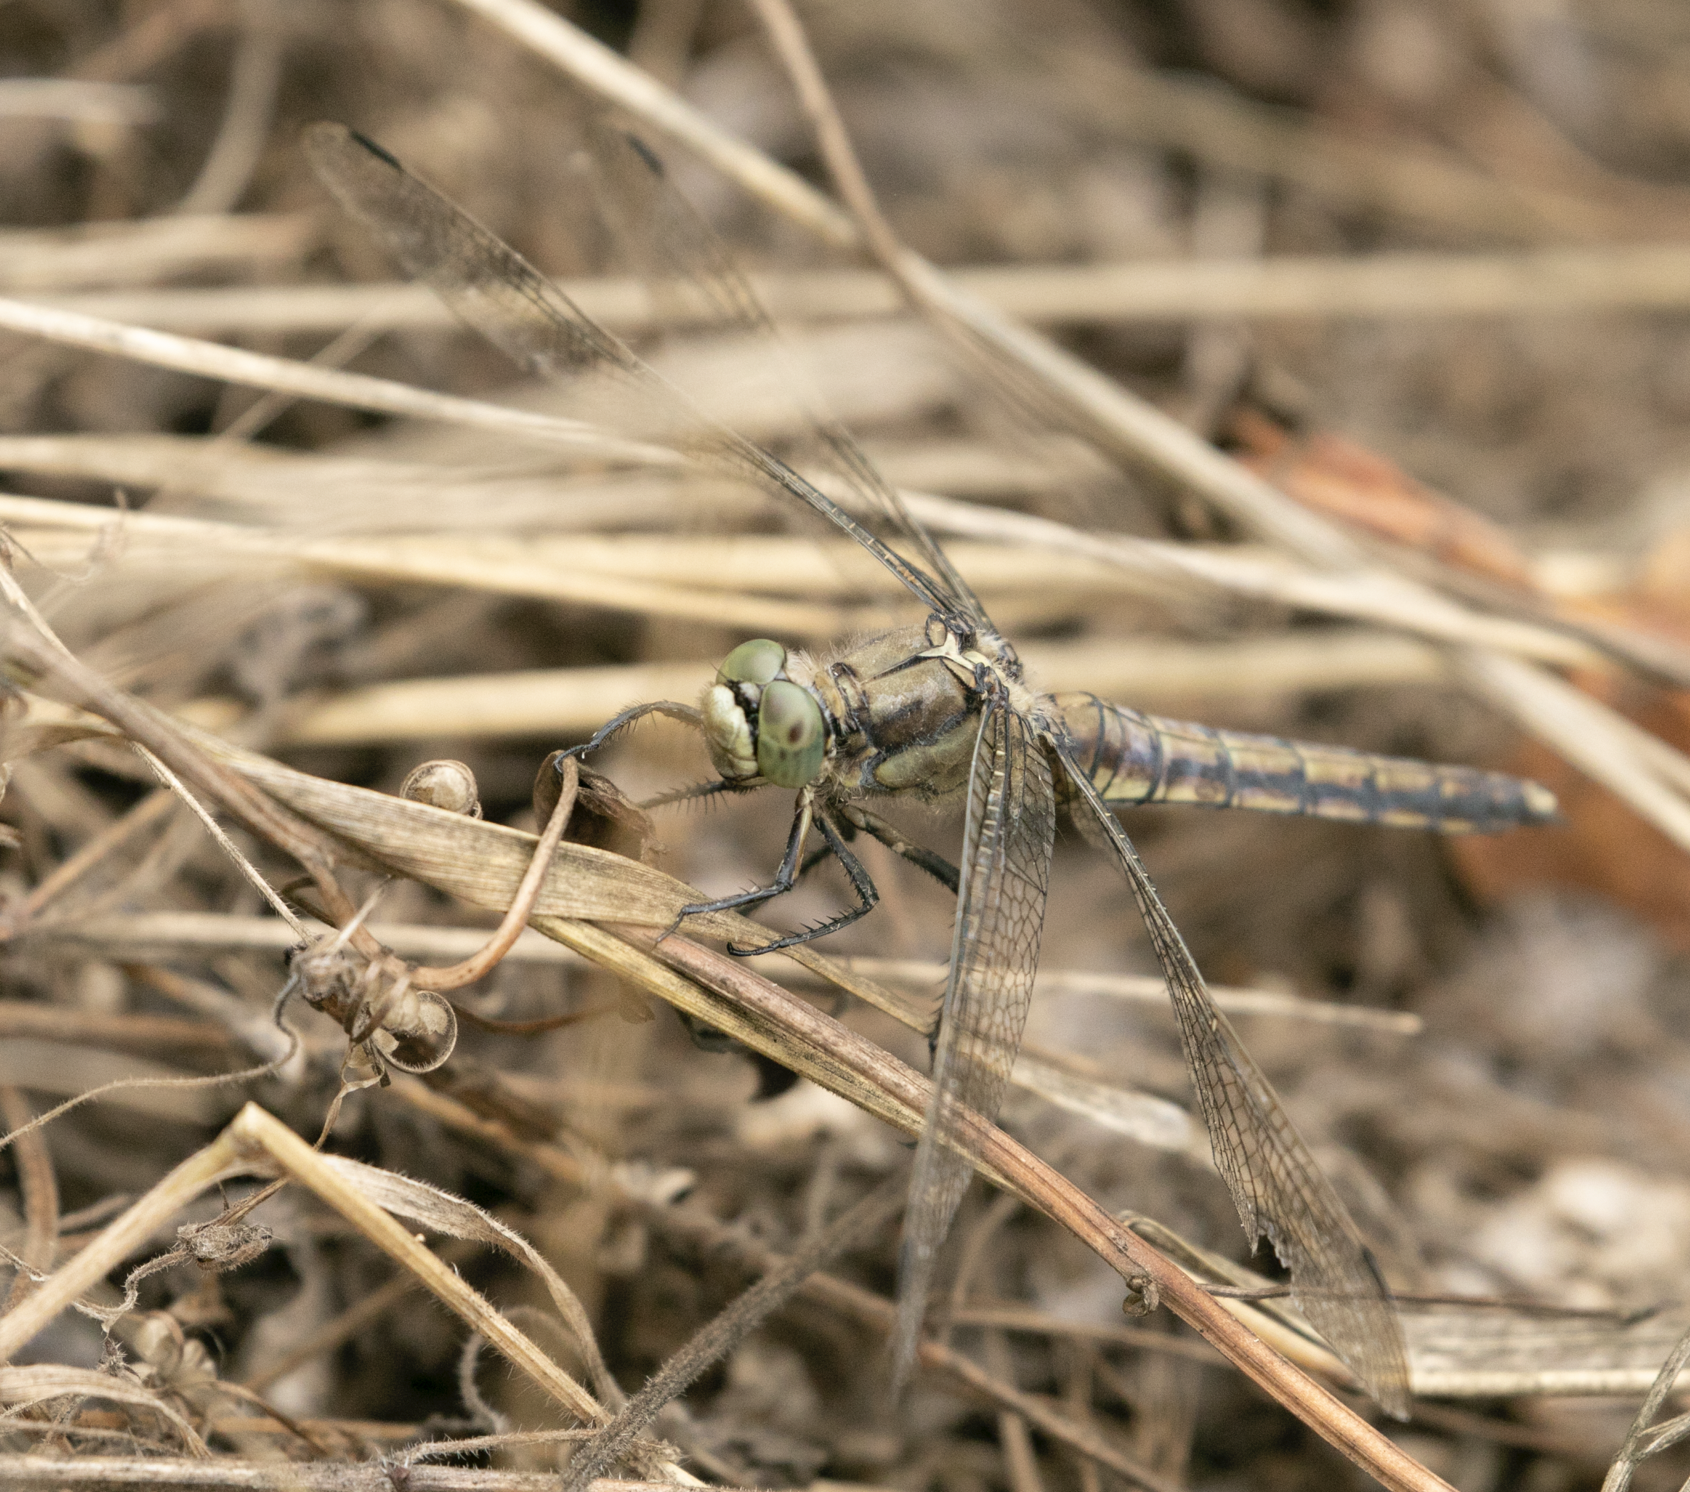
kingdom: Animalia
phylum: Arthropoda
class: Insecta
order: Odonata
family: Libellulidae
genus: Orthetrum
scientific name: Orthetrum cancellatum
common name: Black-tailed skimmer
